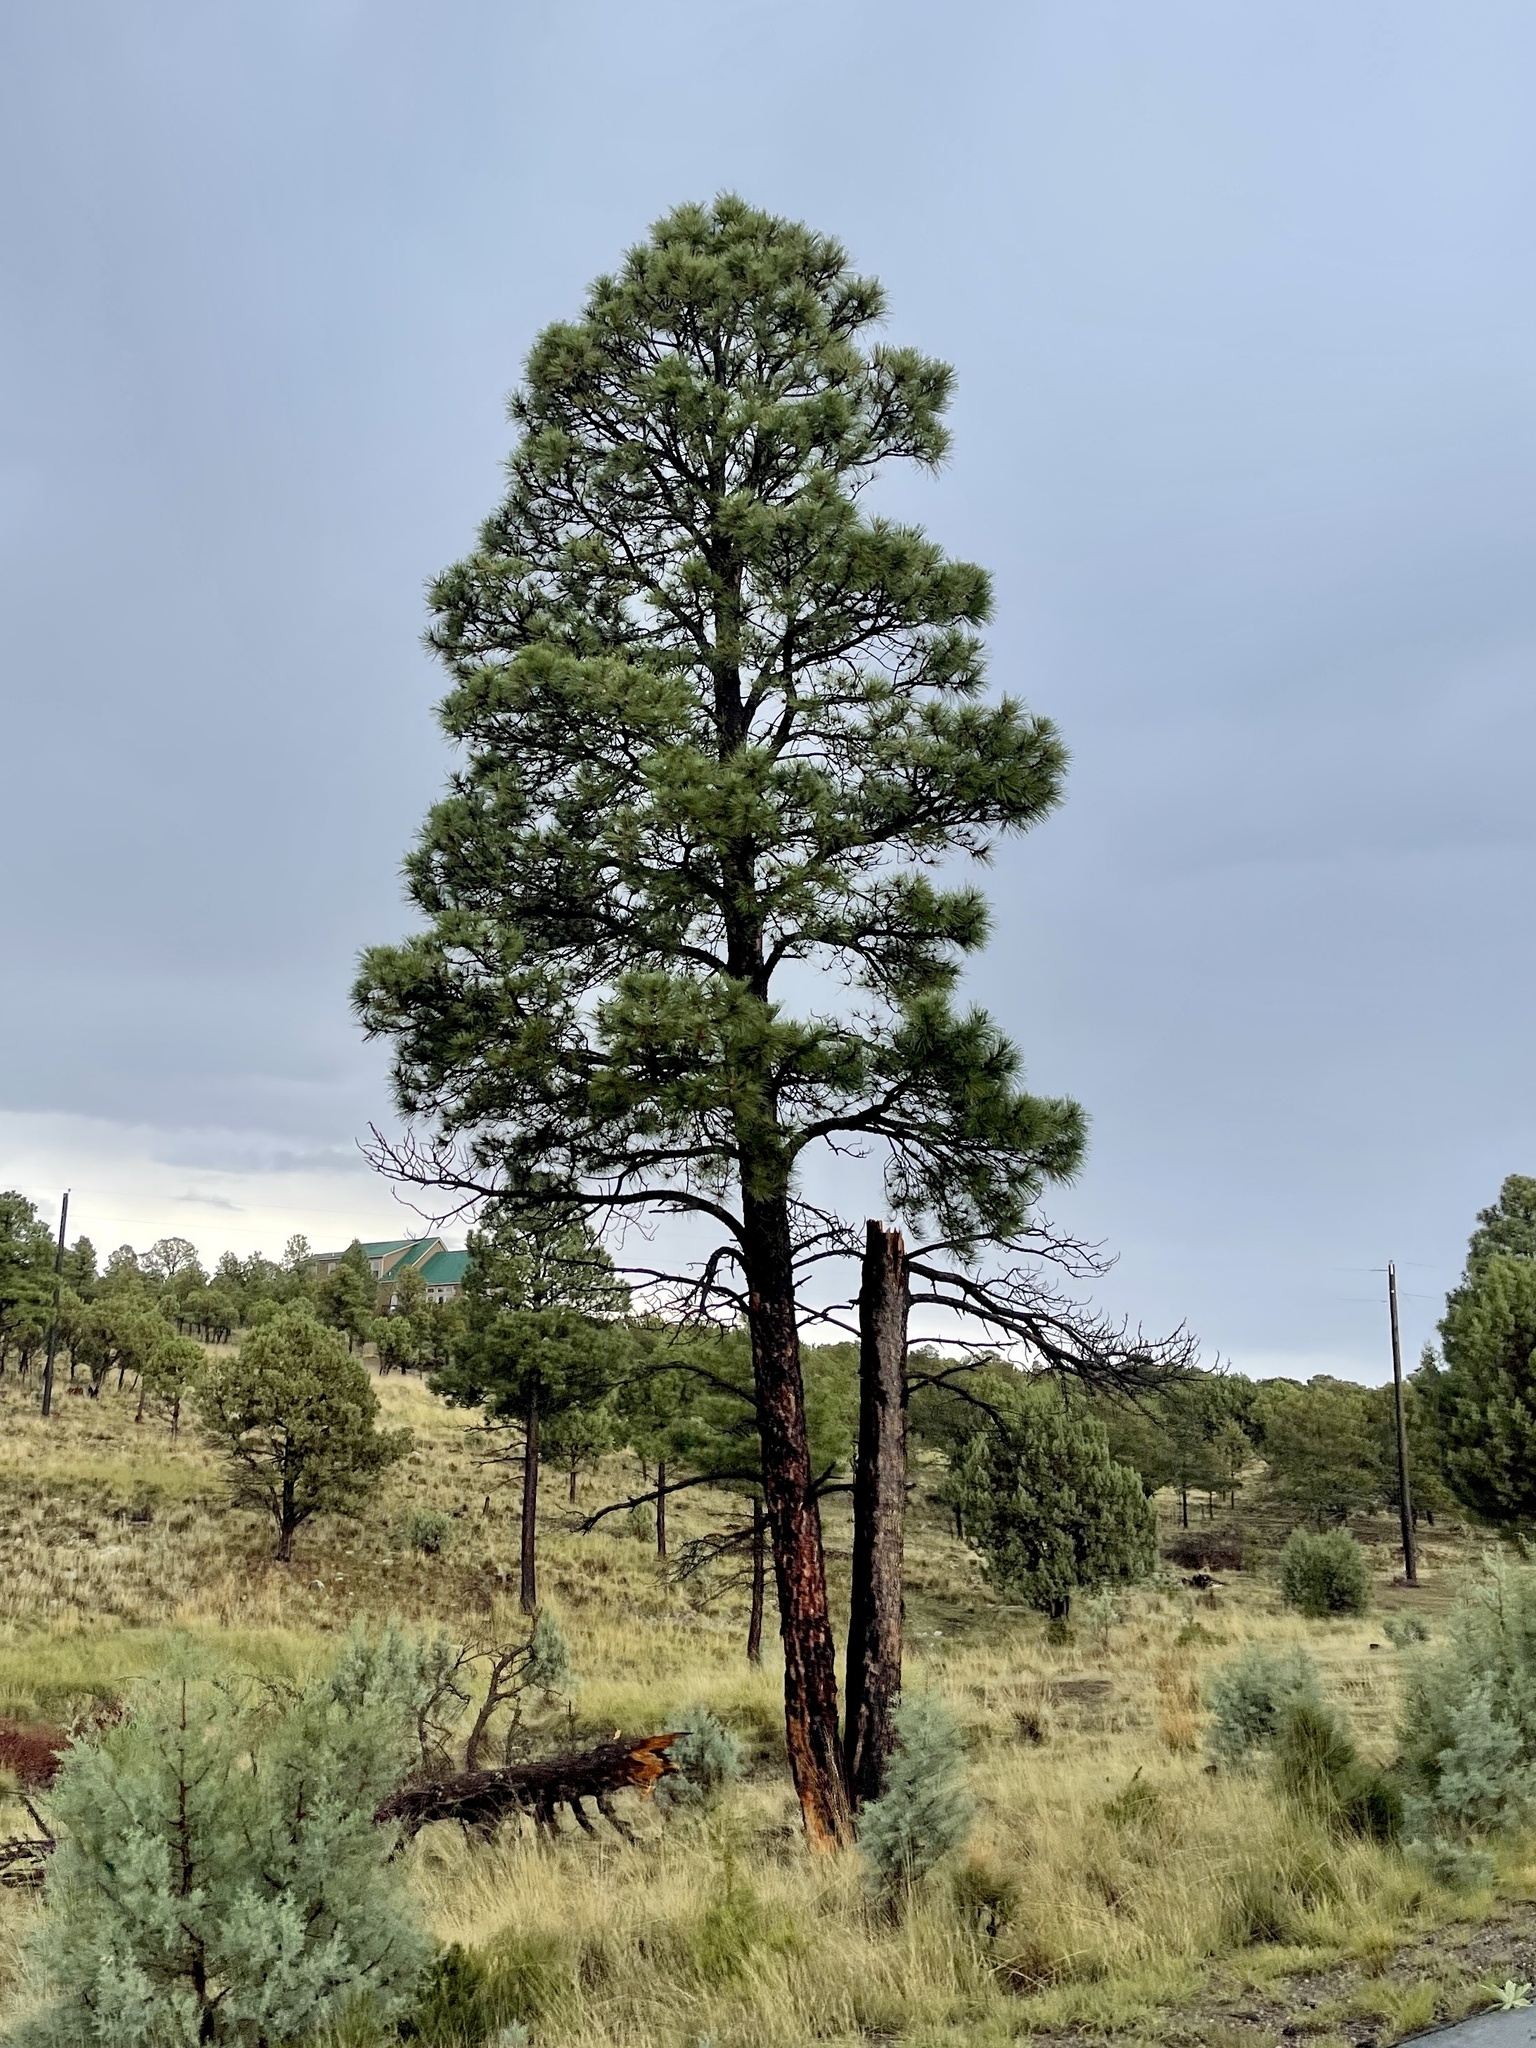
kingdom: Plantae
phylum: Tracheophyta
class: Pinopsida
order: Pinales
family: Pinaceae
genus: Pinus
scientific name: Pinus ponderosa
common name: Western yellow-pine
